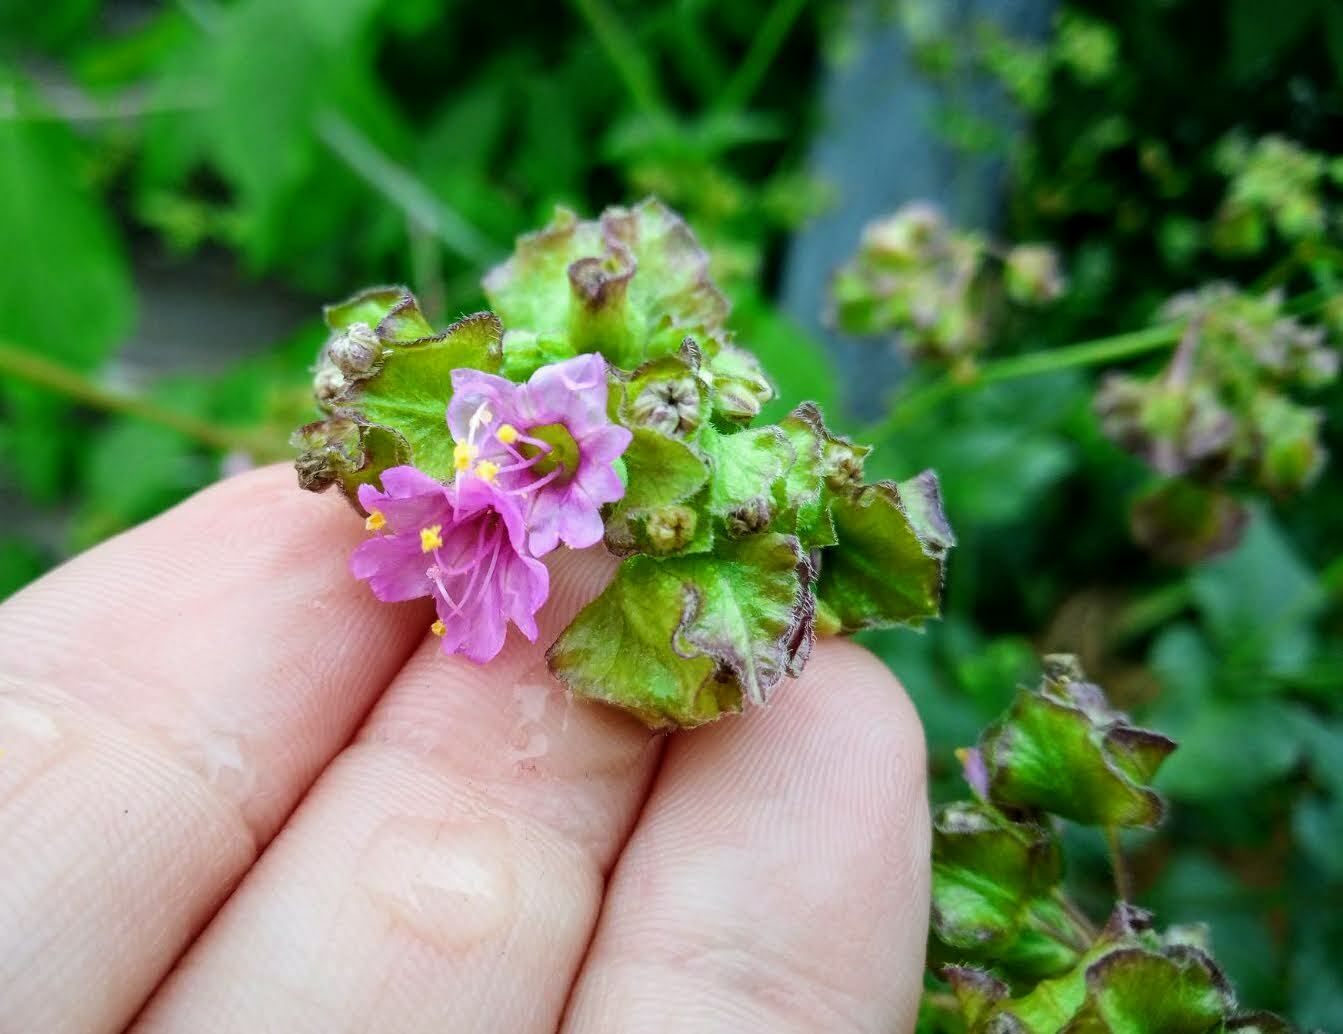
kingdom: Plantae
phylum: Tracheophyta
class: Magnoliopsida
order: Caryophyllales
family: Nyctaginaceae
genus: Mirabilis
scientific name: Mirabilis nyctaginea
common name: Umbrella wort
